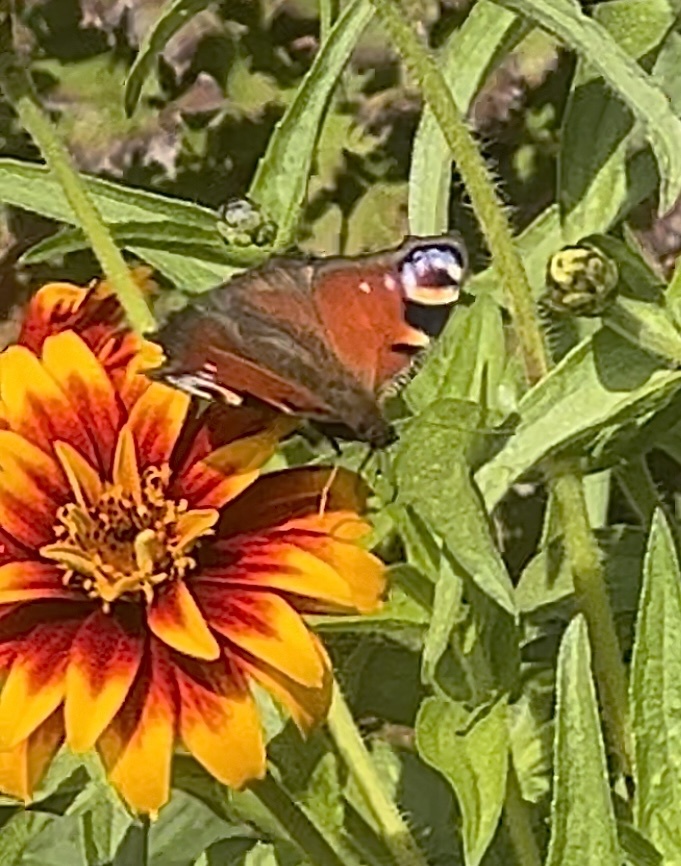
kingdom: Animalia
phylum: Arthropoda
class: Insecta
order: Lepidoptera
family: Nymphalidae
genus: Aglais
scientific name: Aglais io
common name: Peacock
